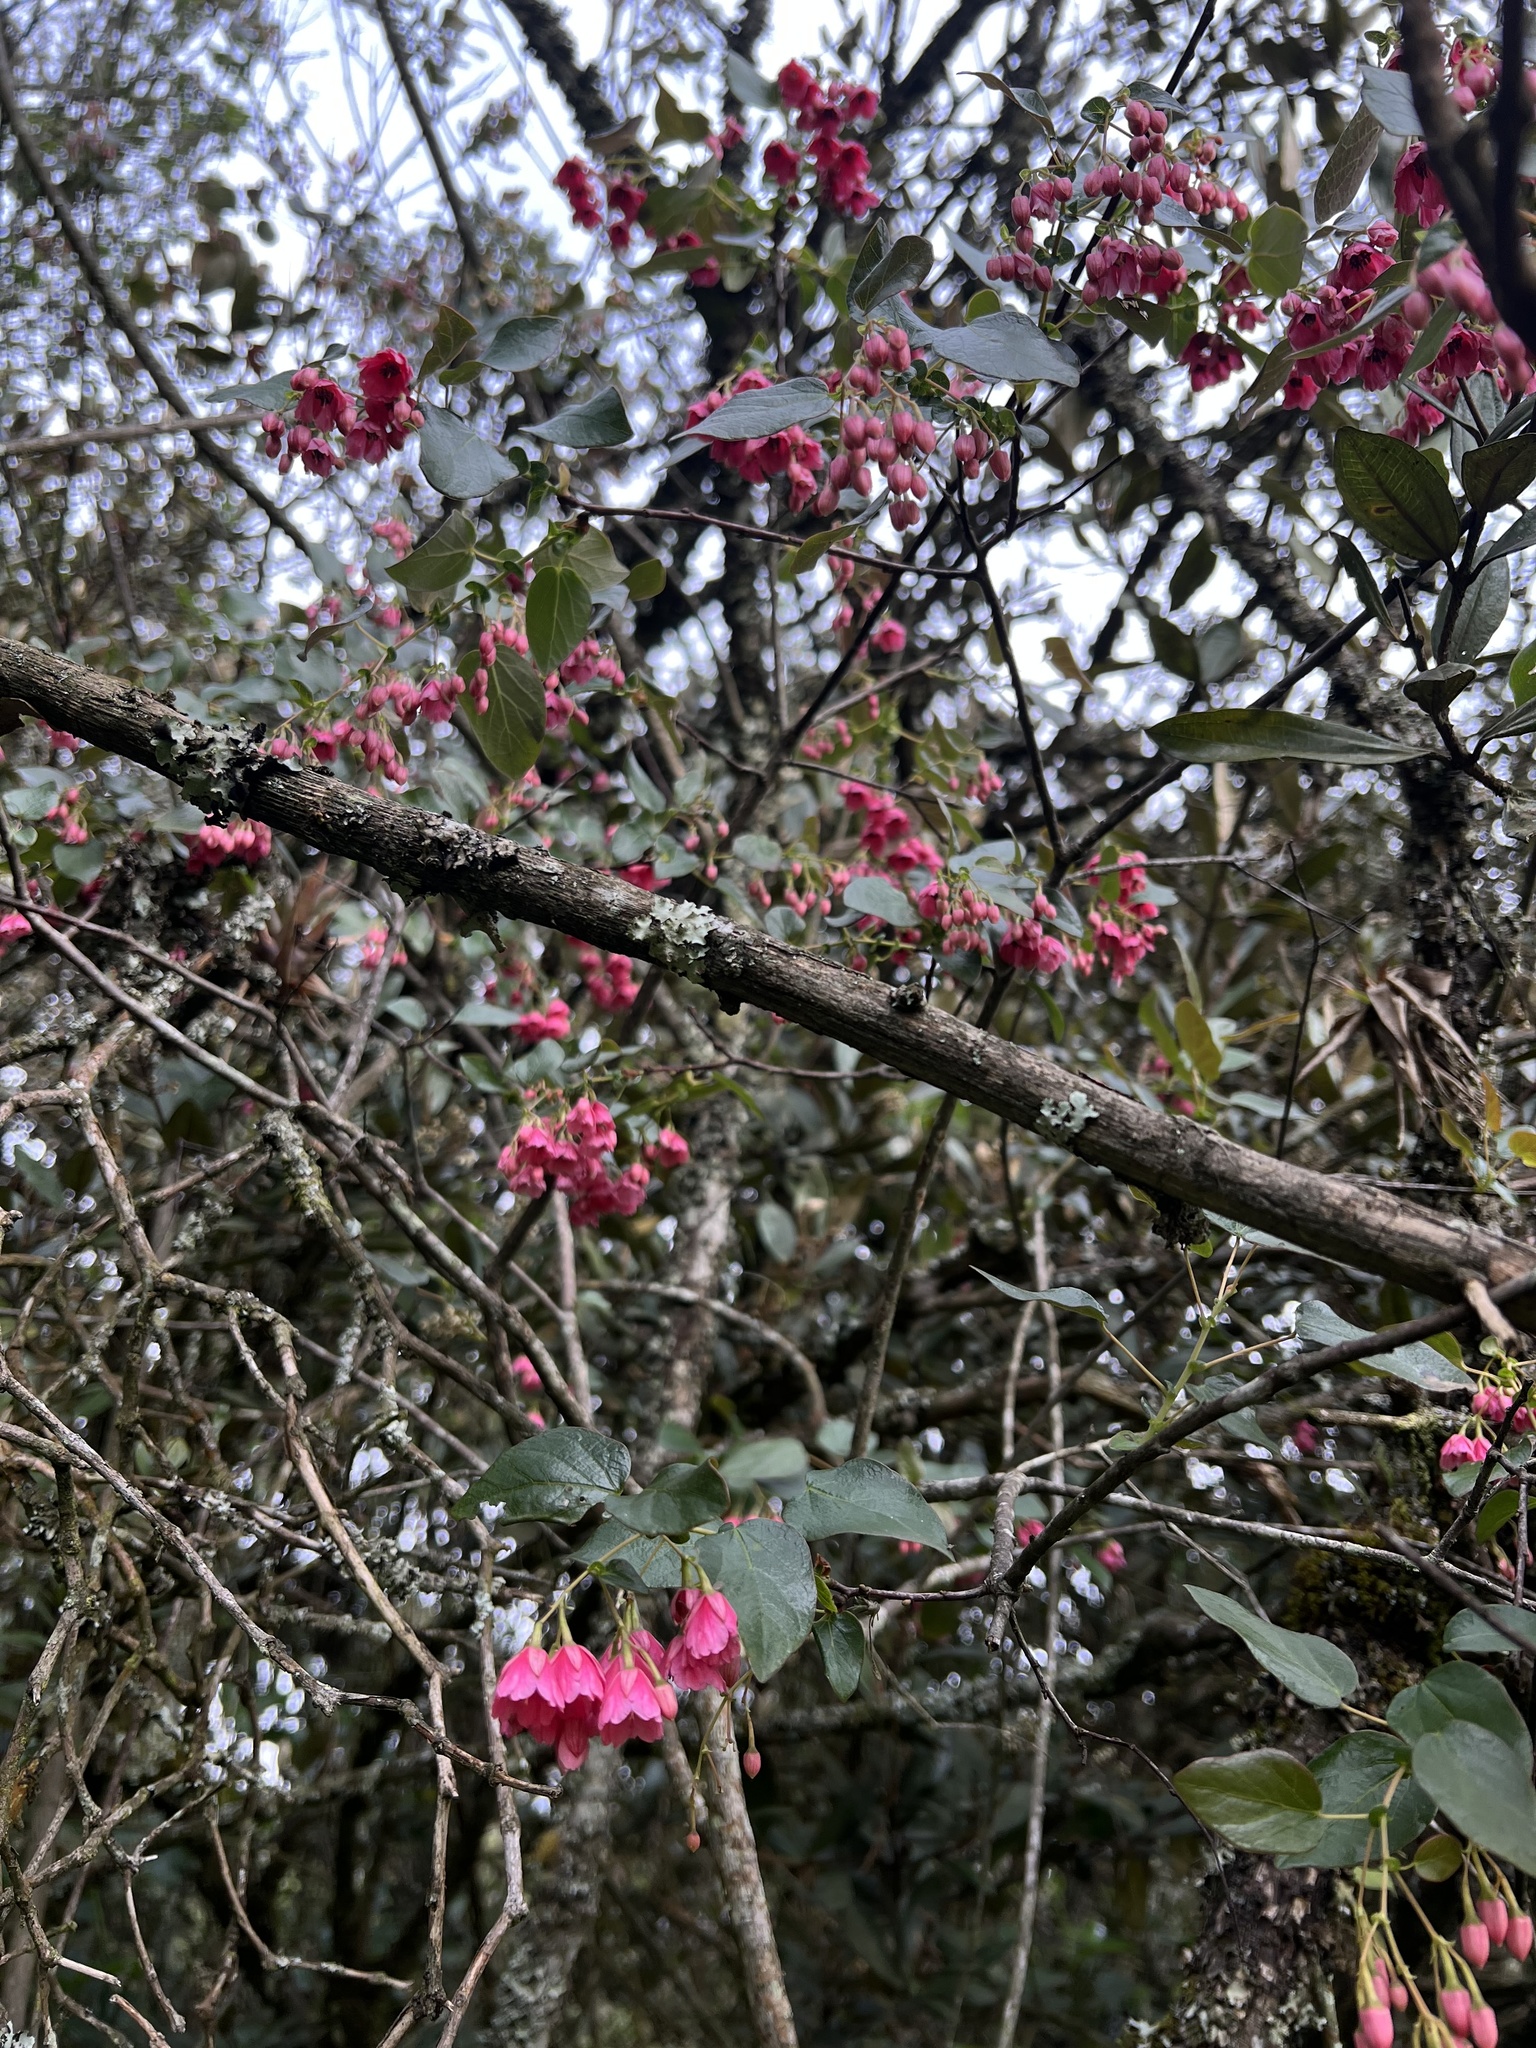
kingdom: Plantae
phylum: Tracheophyta
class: Magnoliopsida
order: Oxalidales
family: Elaeocarpaceae
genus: Vallea
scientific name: Vallea stipularis
